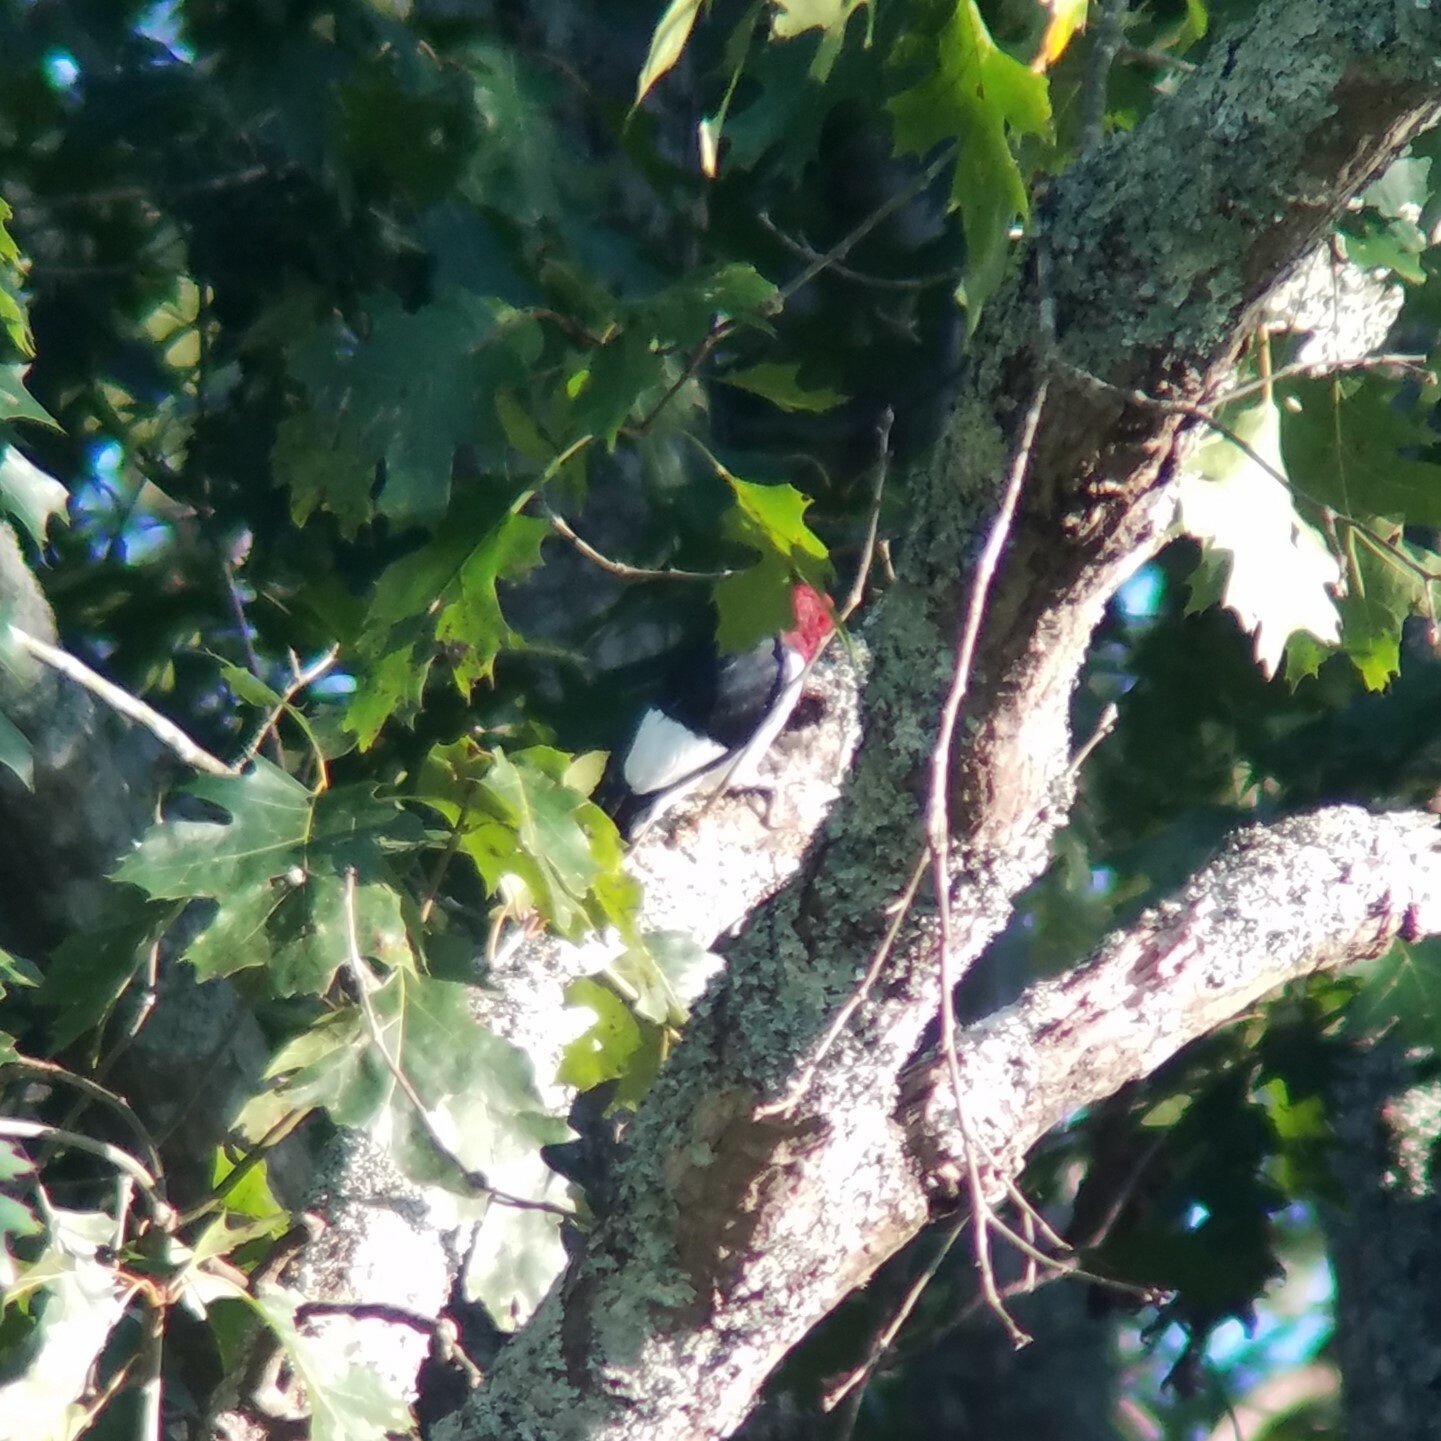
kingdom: Animalia
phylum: Chordata
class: Aves
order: Piciformes
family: Picidae
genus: Melanerpes
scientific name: Melanerpes erythrocephalus
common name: Red-headed woodpecker
